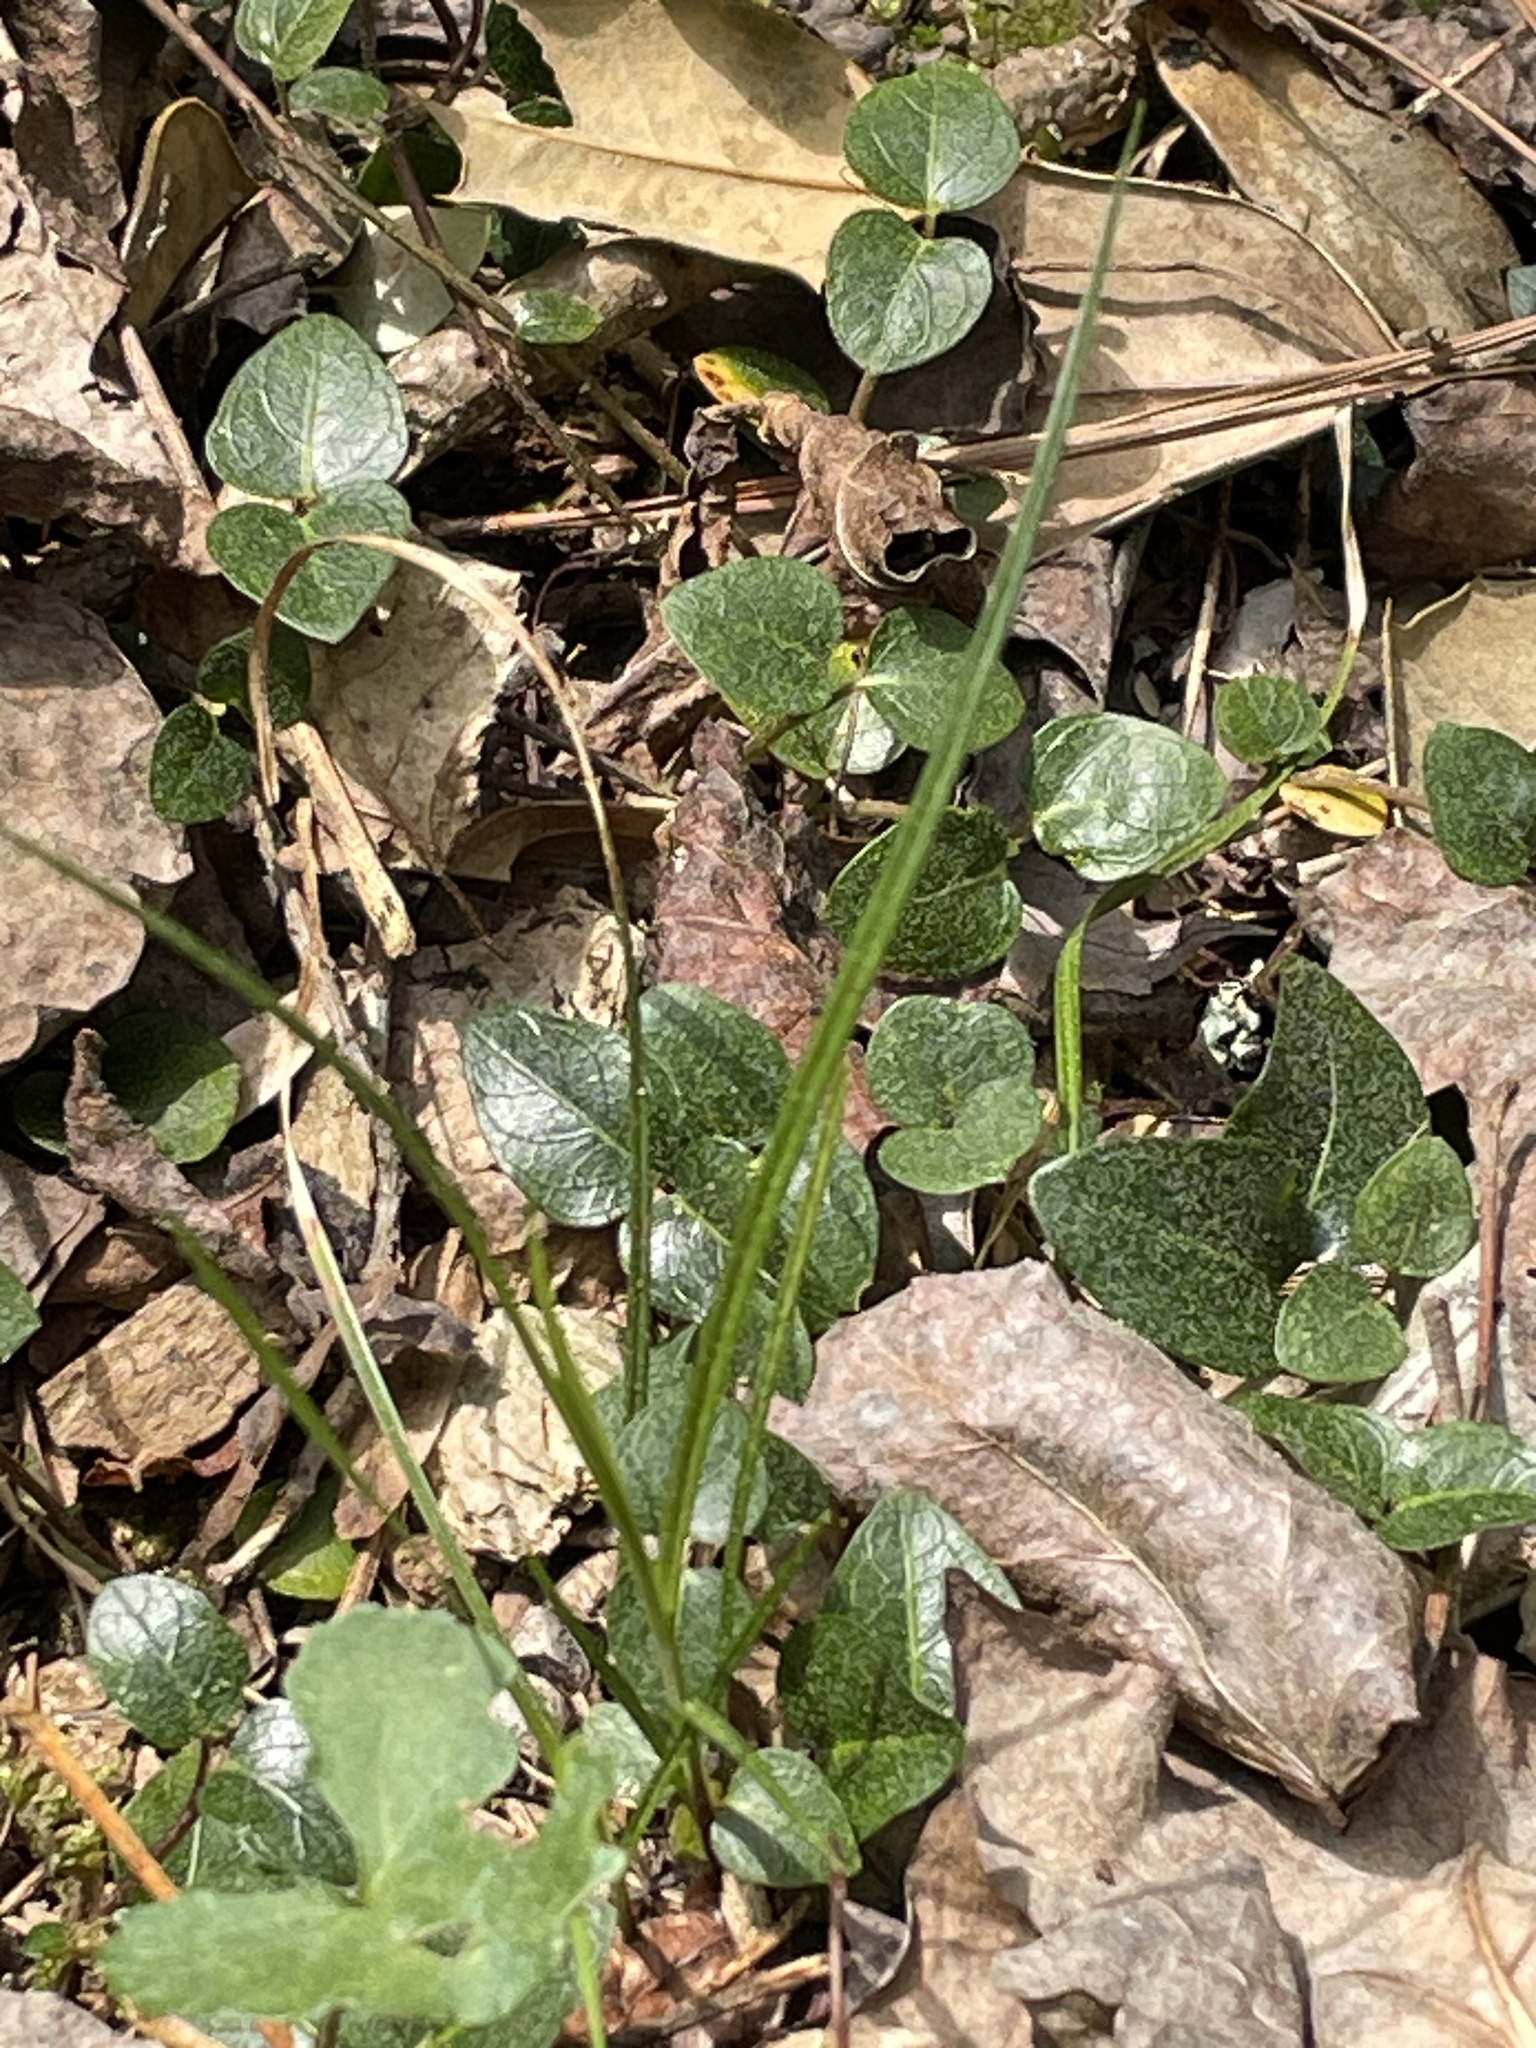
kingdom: Plantae
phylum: Tracheophyta
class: Magnoliopsida
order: Gentianales
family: Rubiaceae
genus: Mitchella
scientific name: Mitchella repens
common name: Partridge-berry
